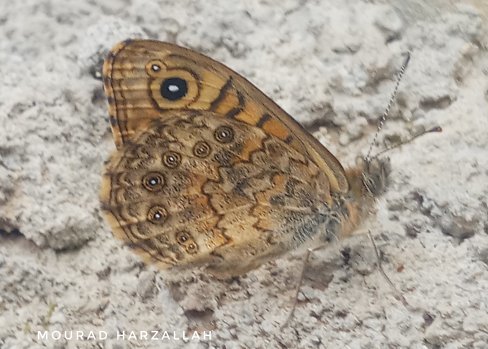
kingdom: Animalia
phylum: Arthropoda
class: Insecta
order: Lepidoptera
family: Nymphalidae
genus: Pararge
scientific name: Pararge Lasiommata megera
